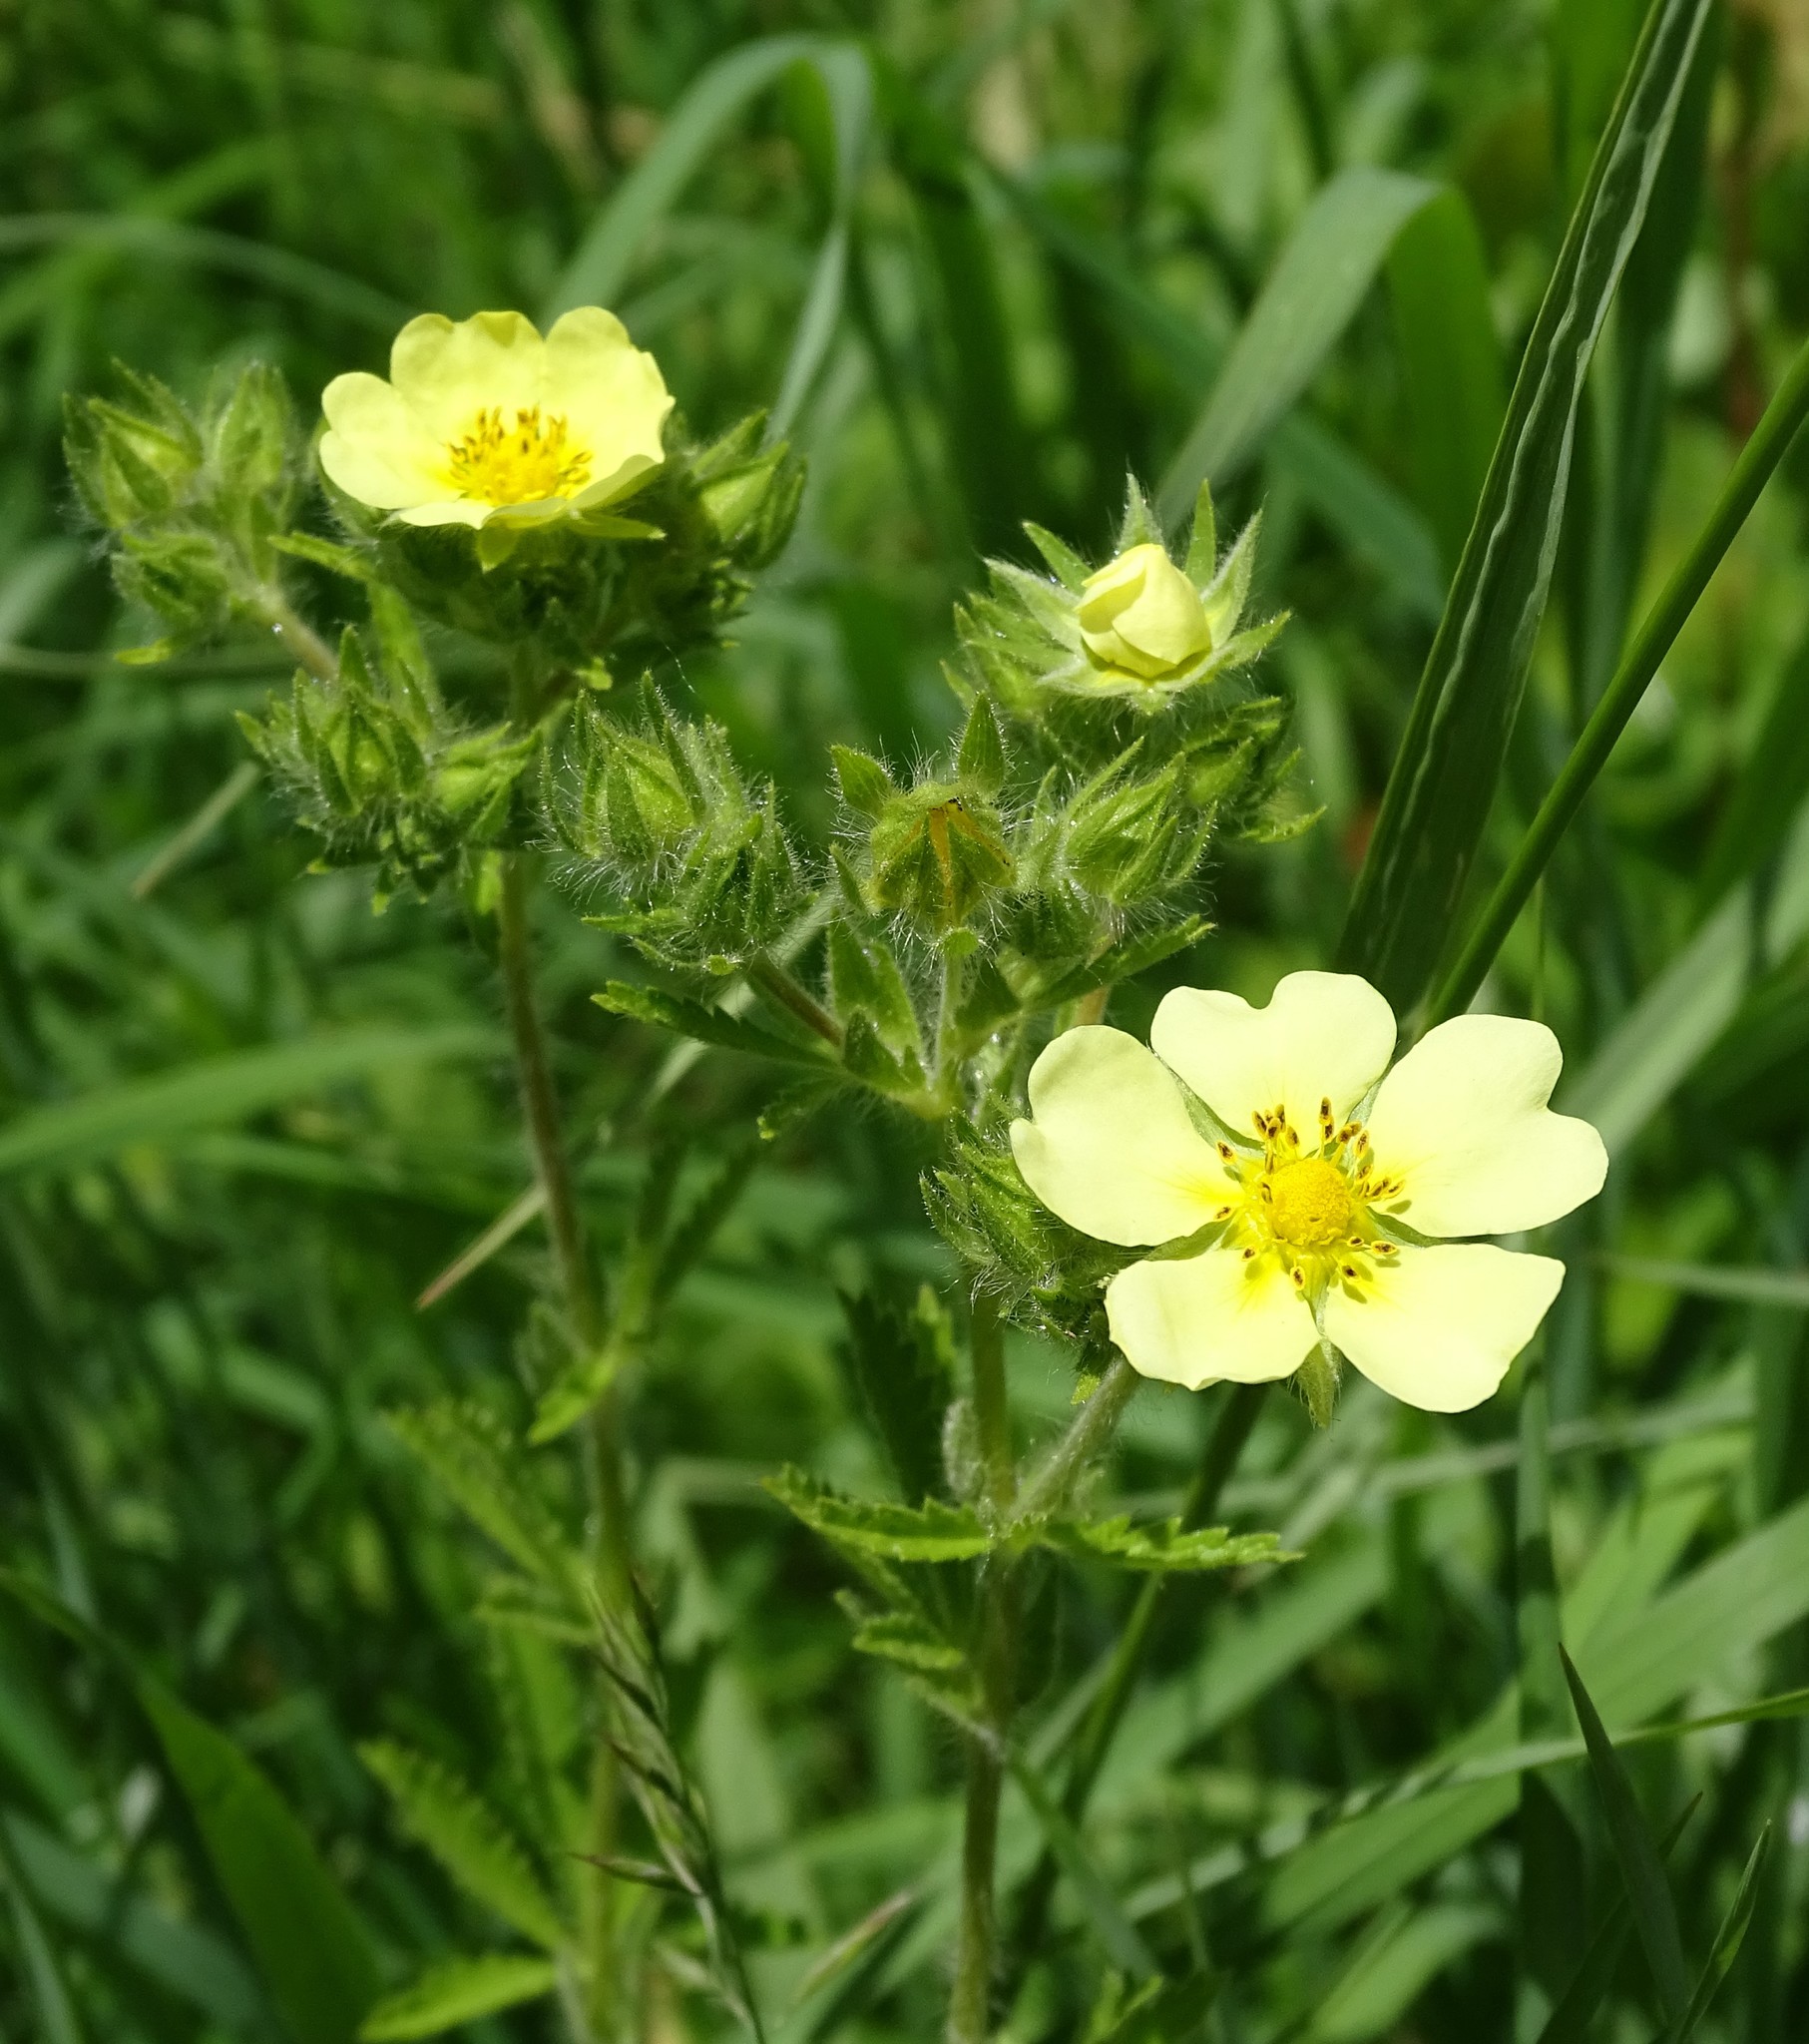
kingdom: Plantae
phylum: Tracheophyta
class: Magnoliopsida
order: Rosales
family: Rosaceae
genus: Potentilla
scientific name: Potentilla recta
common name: Sulphur cinquefoil
